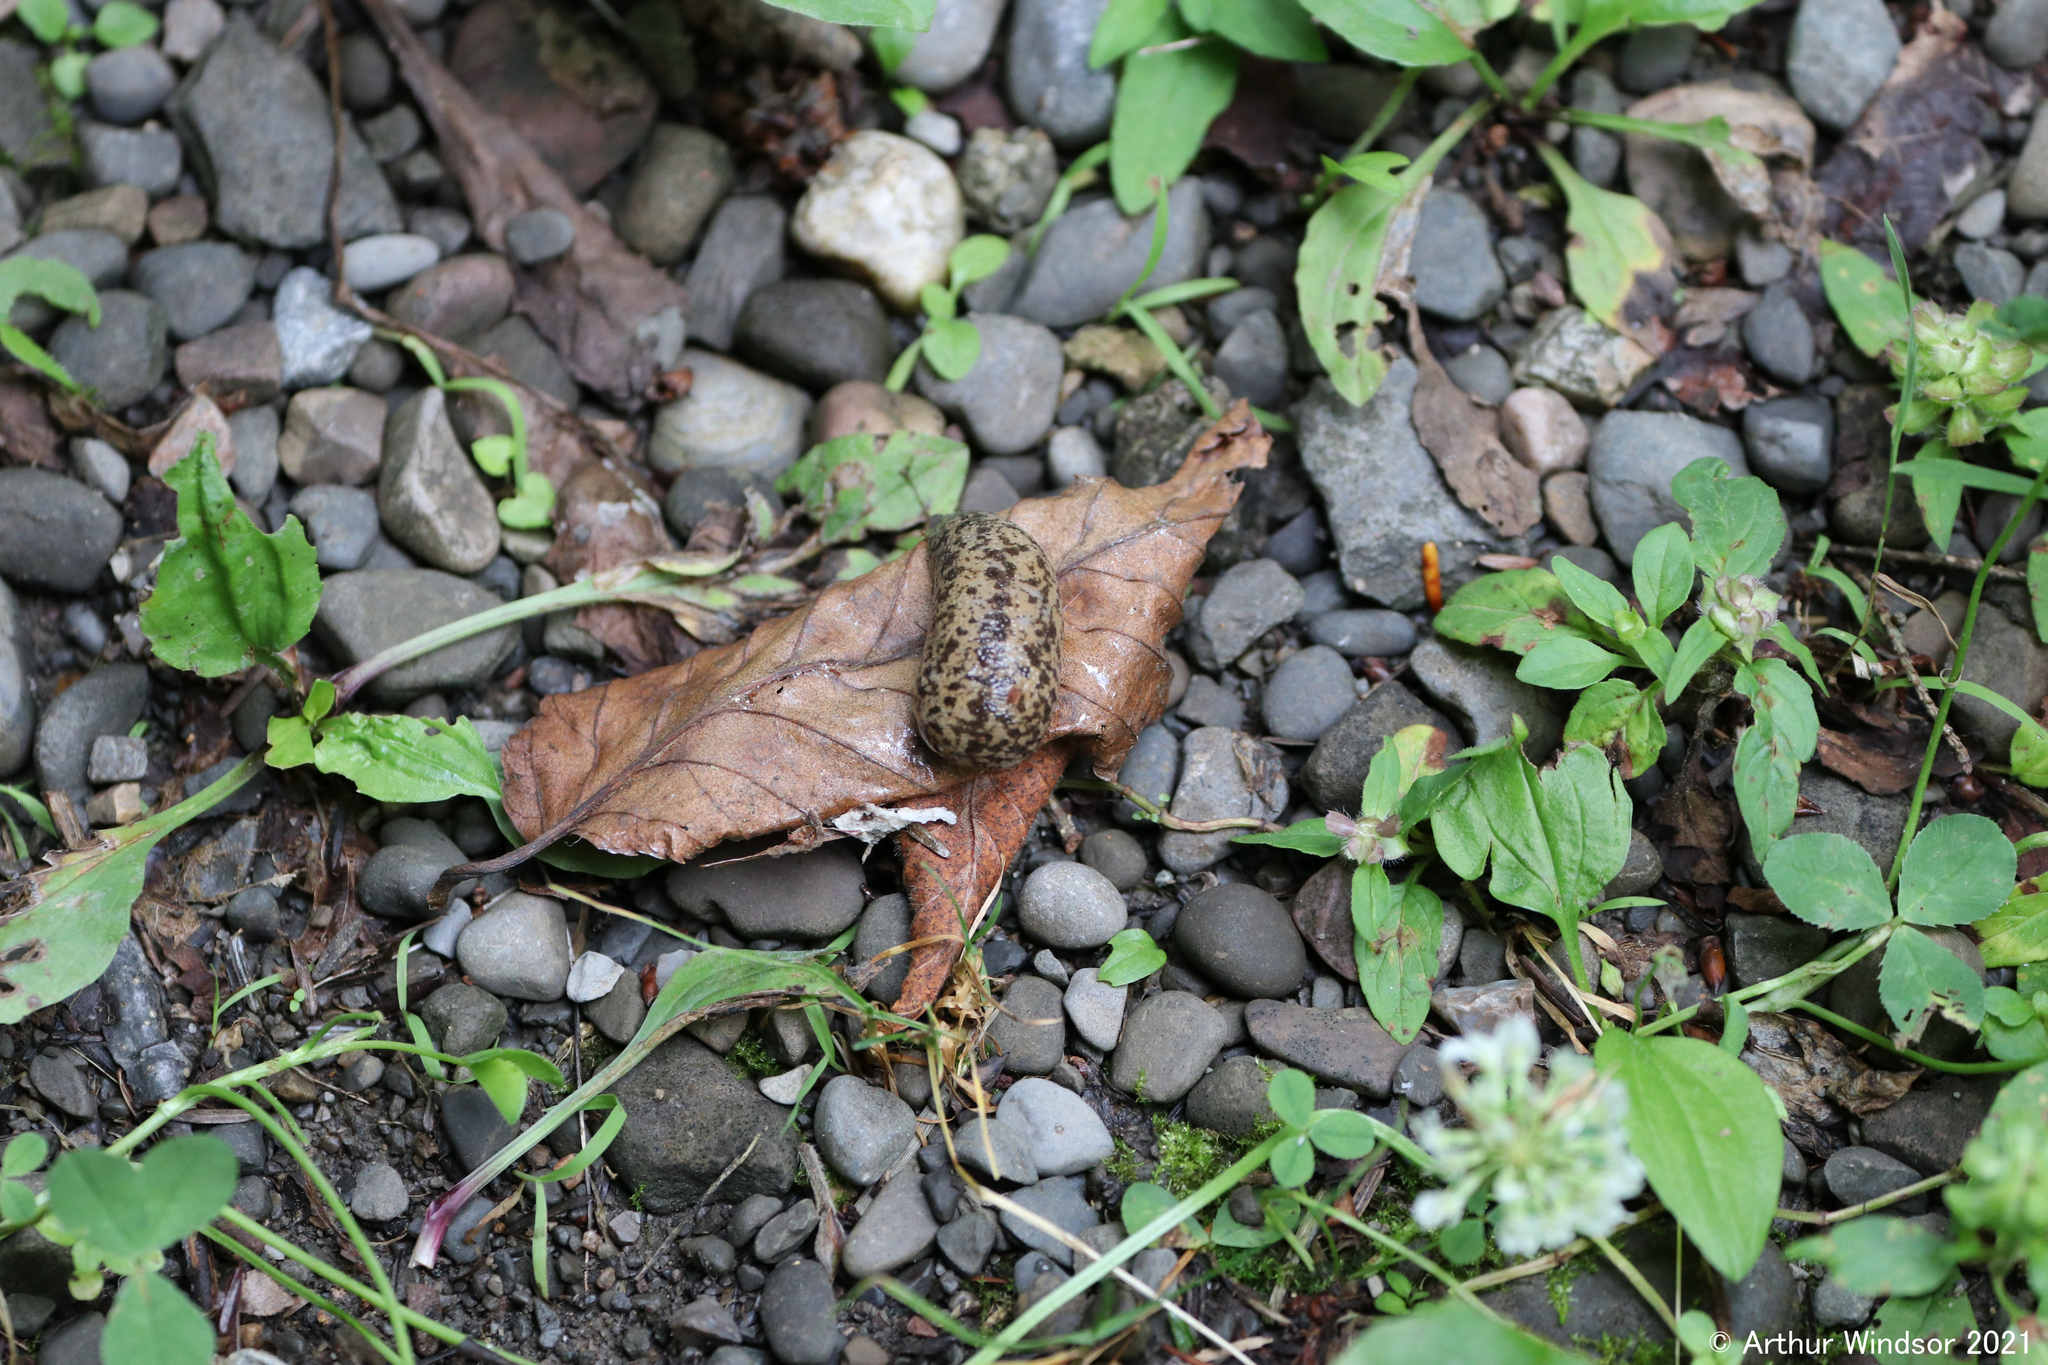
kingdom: Animalia
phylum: Mollusca
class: Gastropoda
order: Stylommatophora
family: Philomycidae
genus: Philomycus
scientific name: Philomycus flexuolaris
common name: Winding mantleslug
